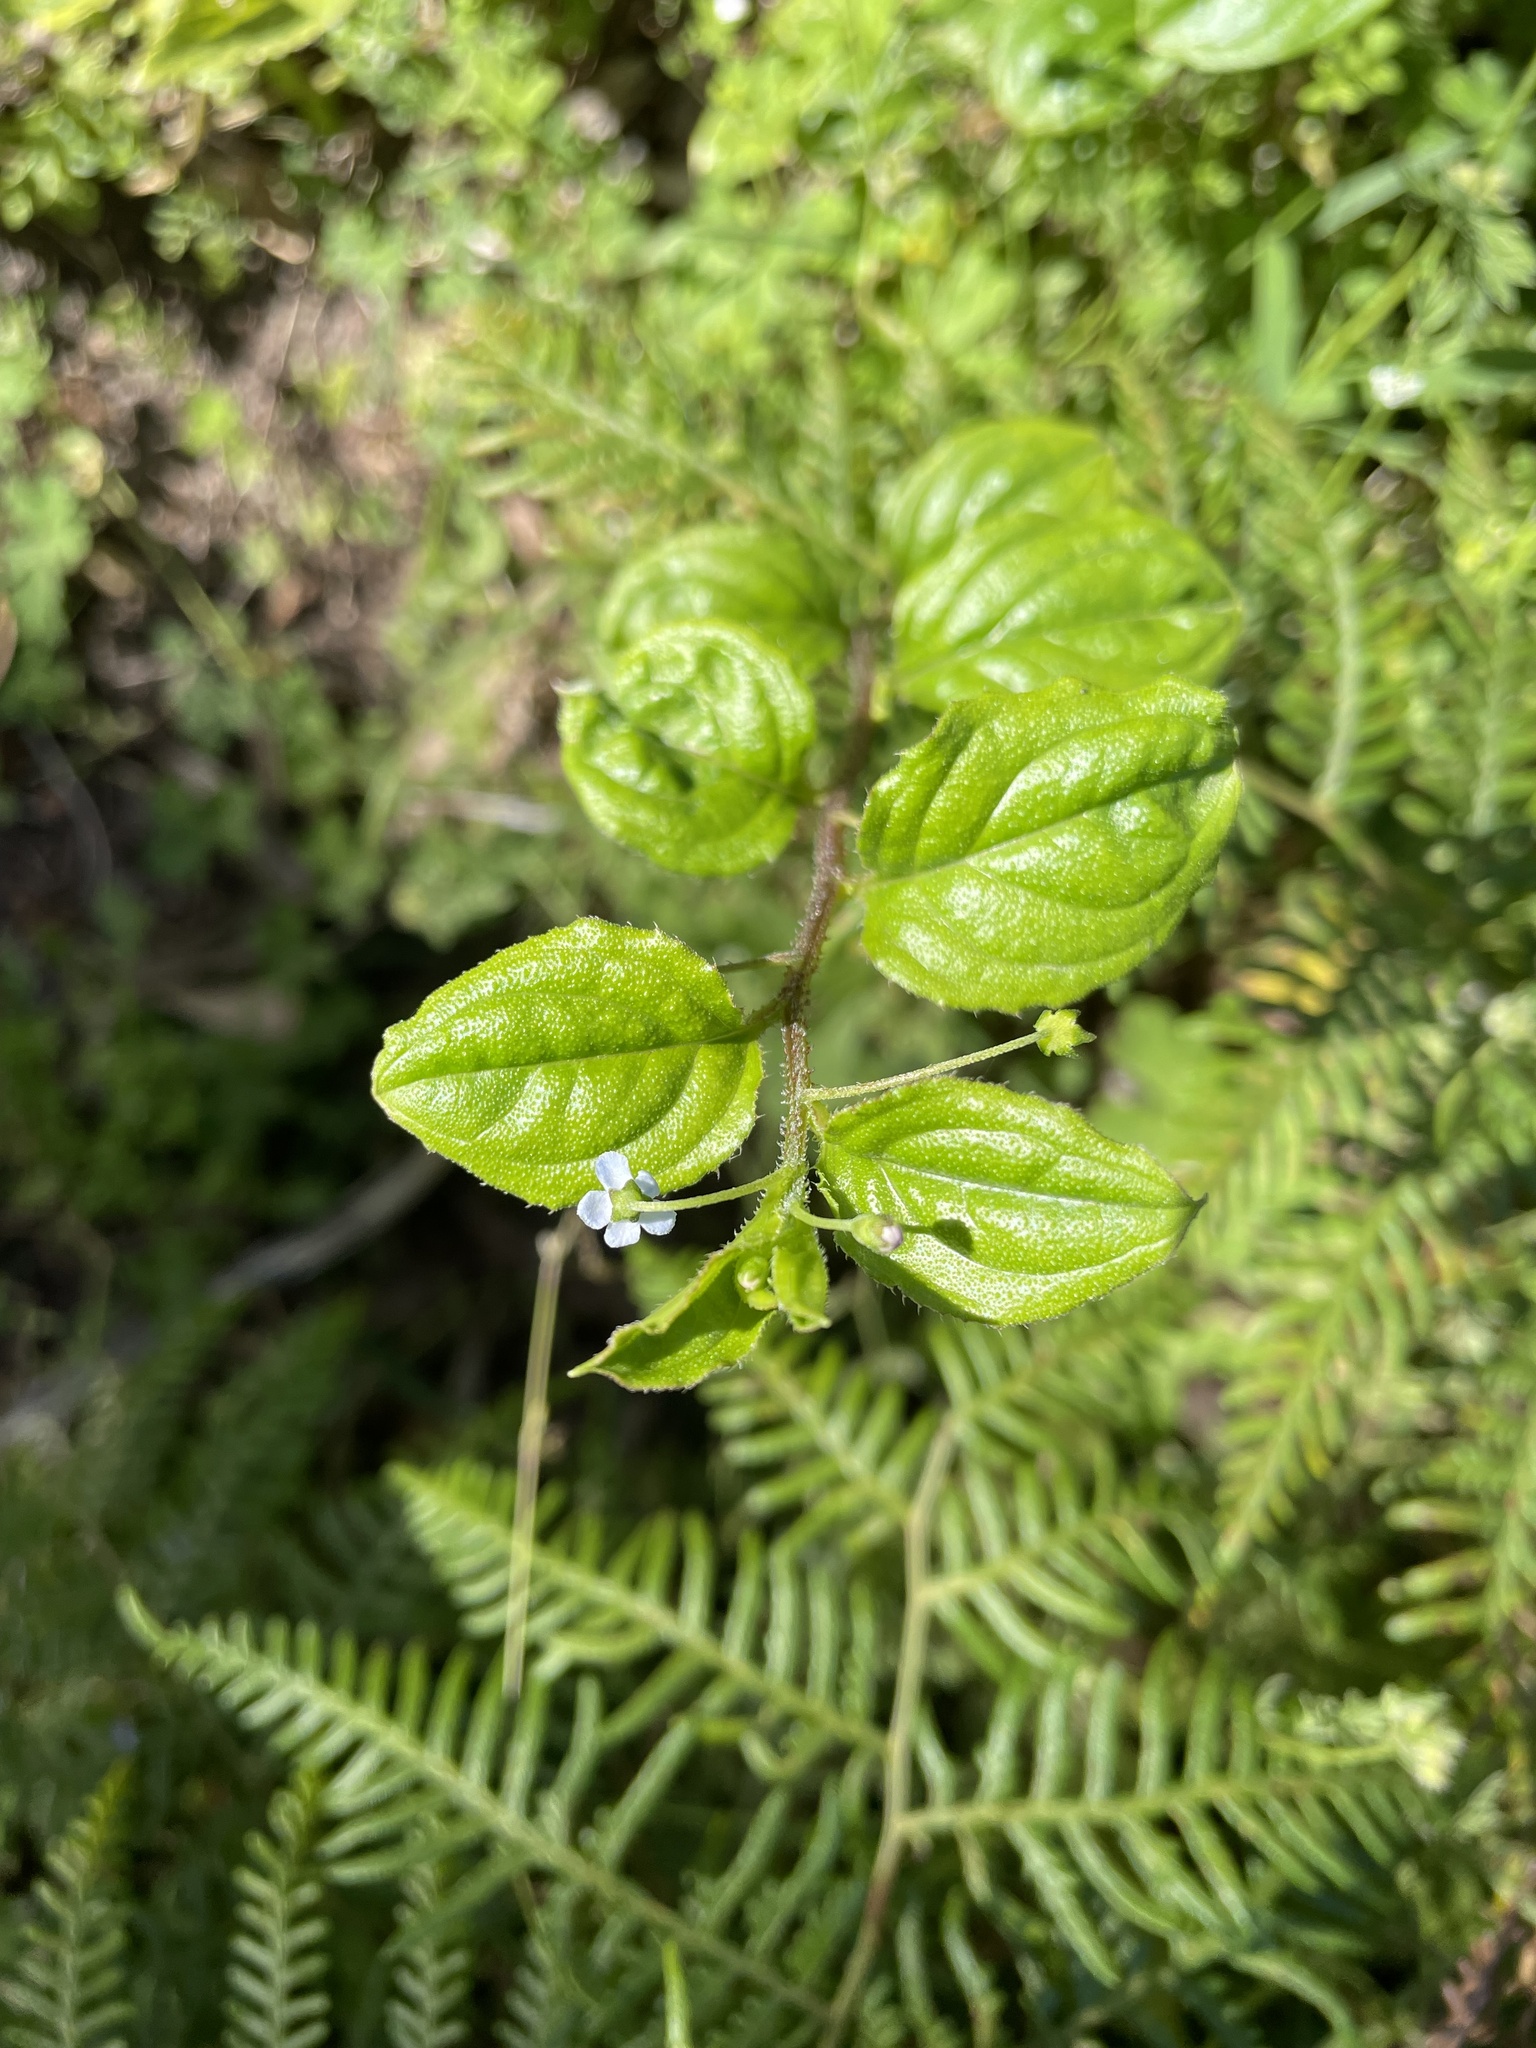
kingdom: Plantae
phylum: Tracheophyta
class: Magnoliopsida
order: Boraginales
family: Boraginaceae
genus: Hackelia
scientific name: Hackelia latifolia
